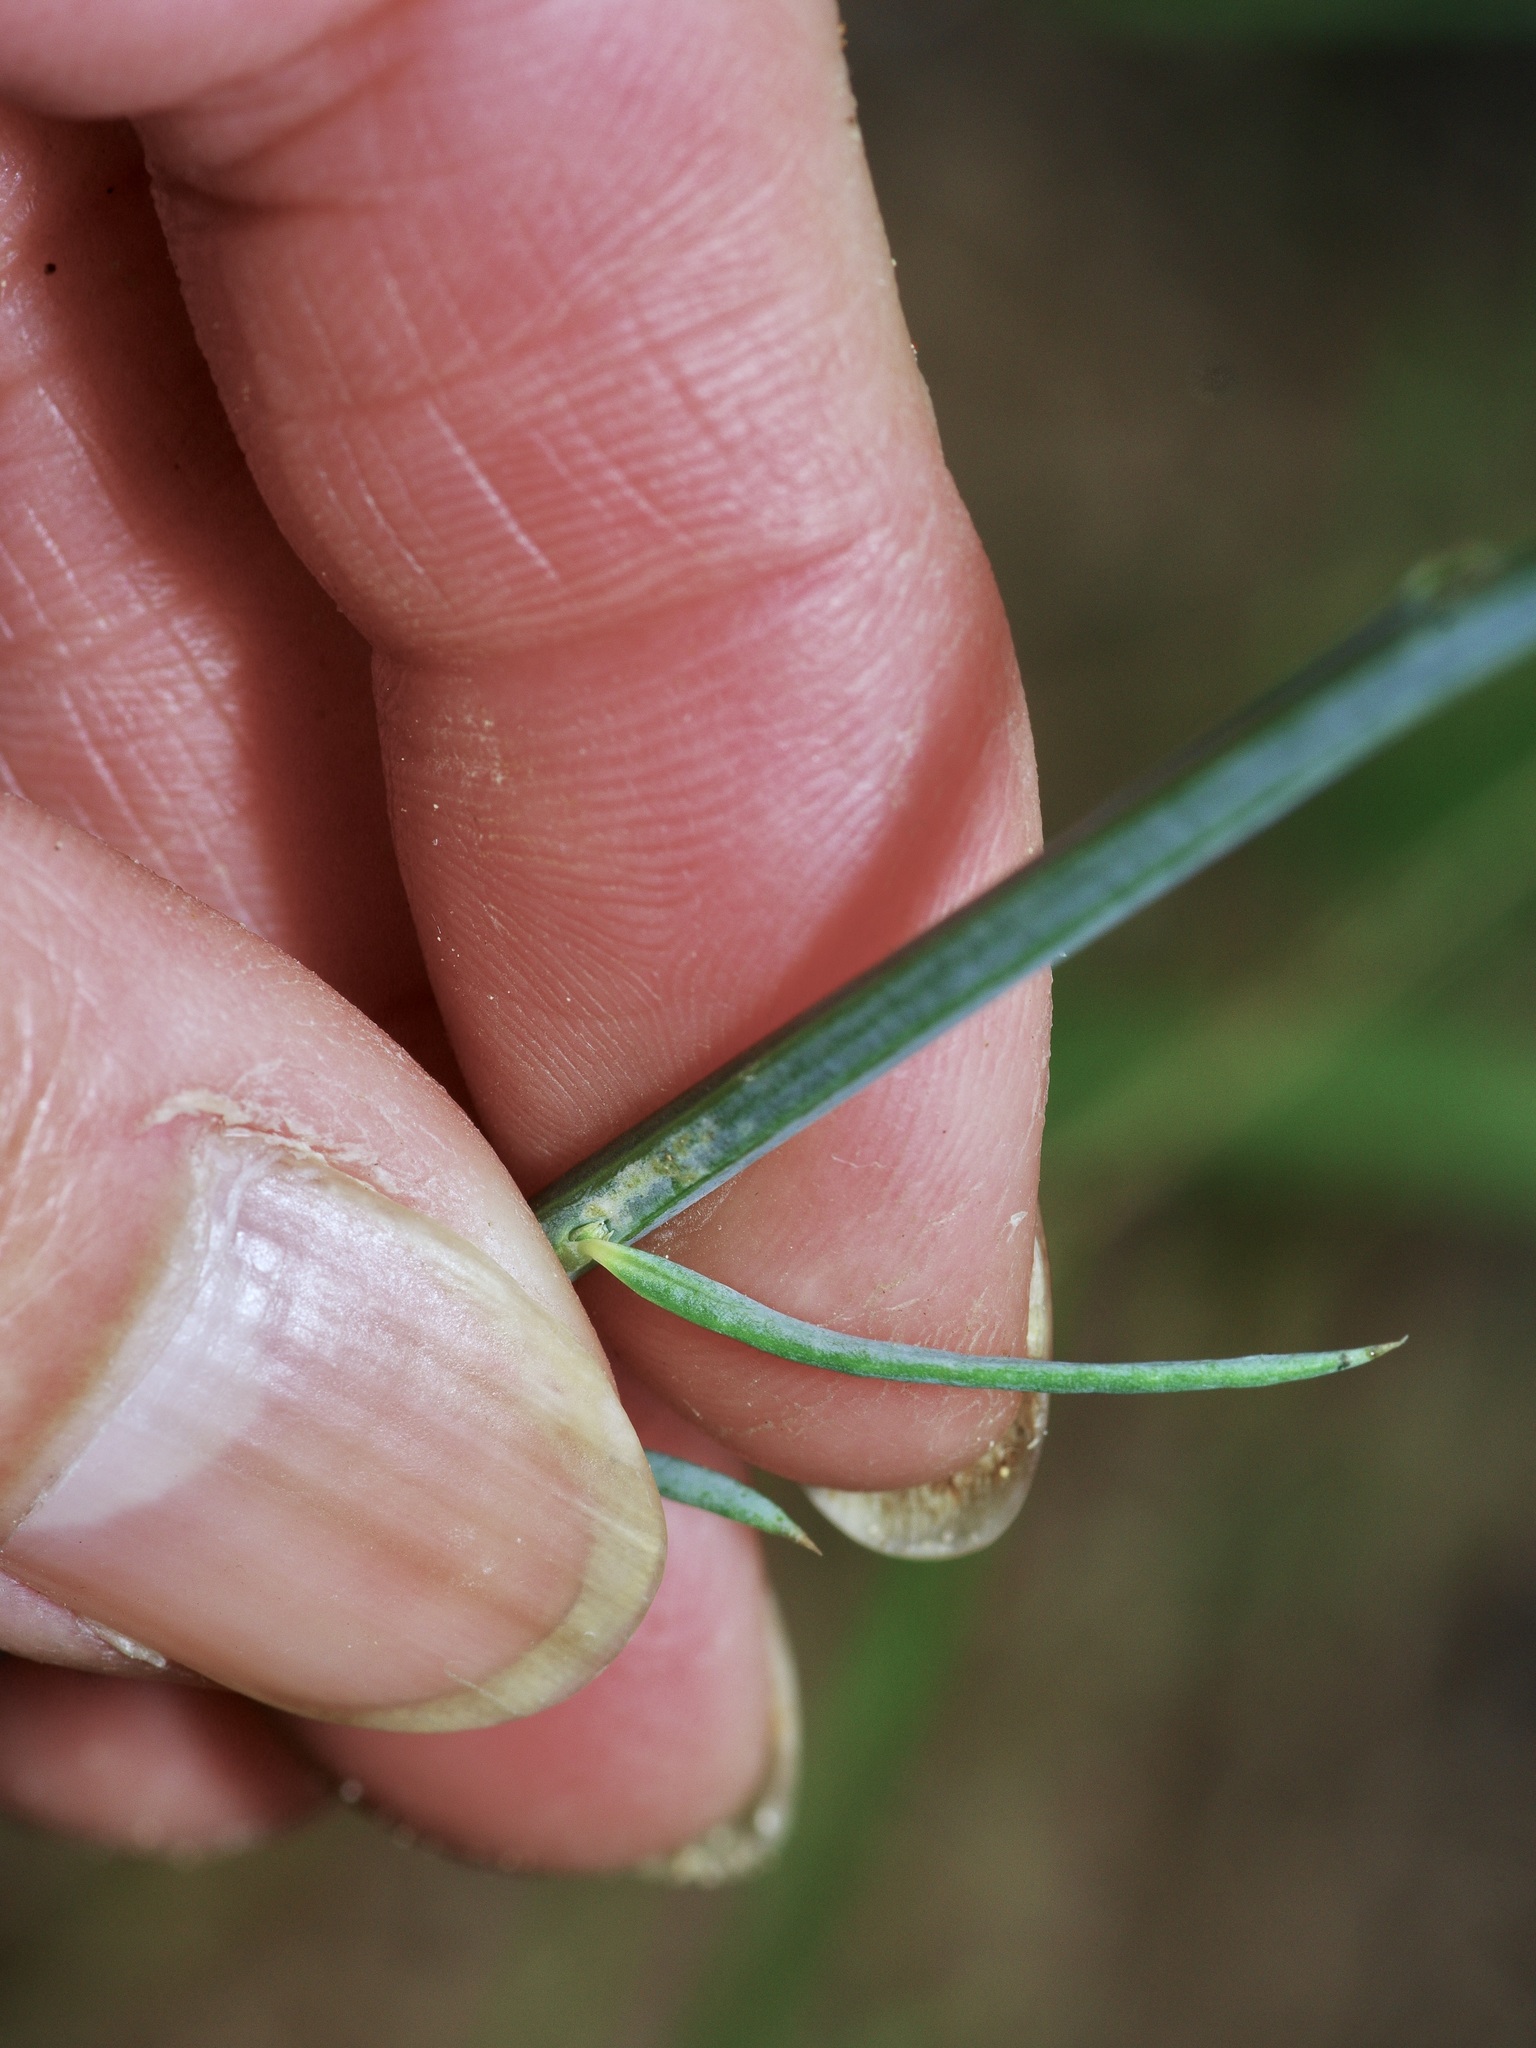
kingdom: Plantae
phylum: Tracheophyta
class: Magnoliopsida
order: Fabales
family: Polygalaceae
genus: Polygala
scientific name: Polygala incarnata
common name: Pink milkwort
